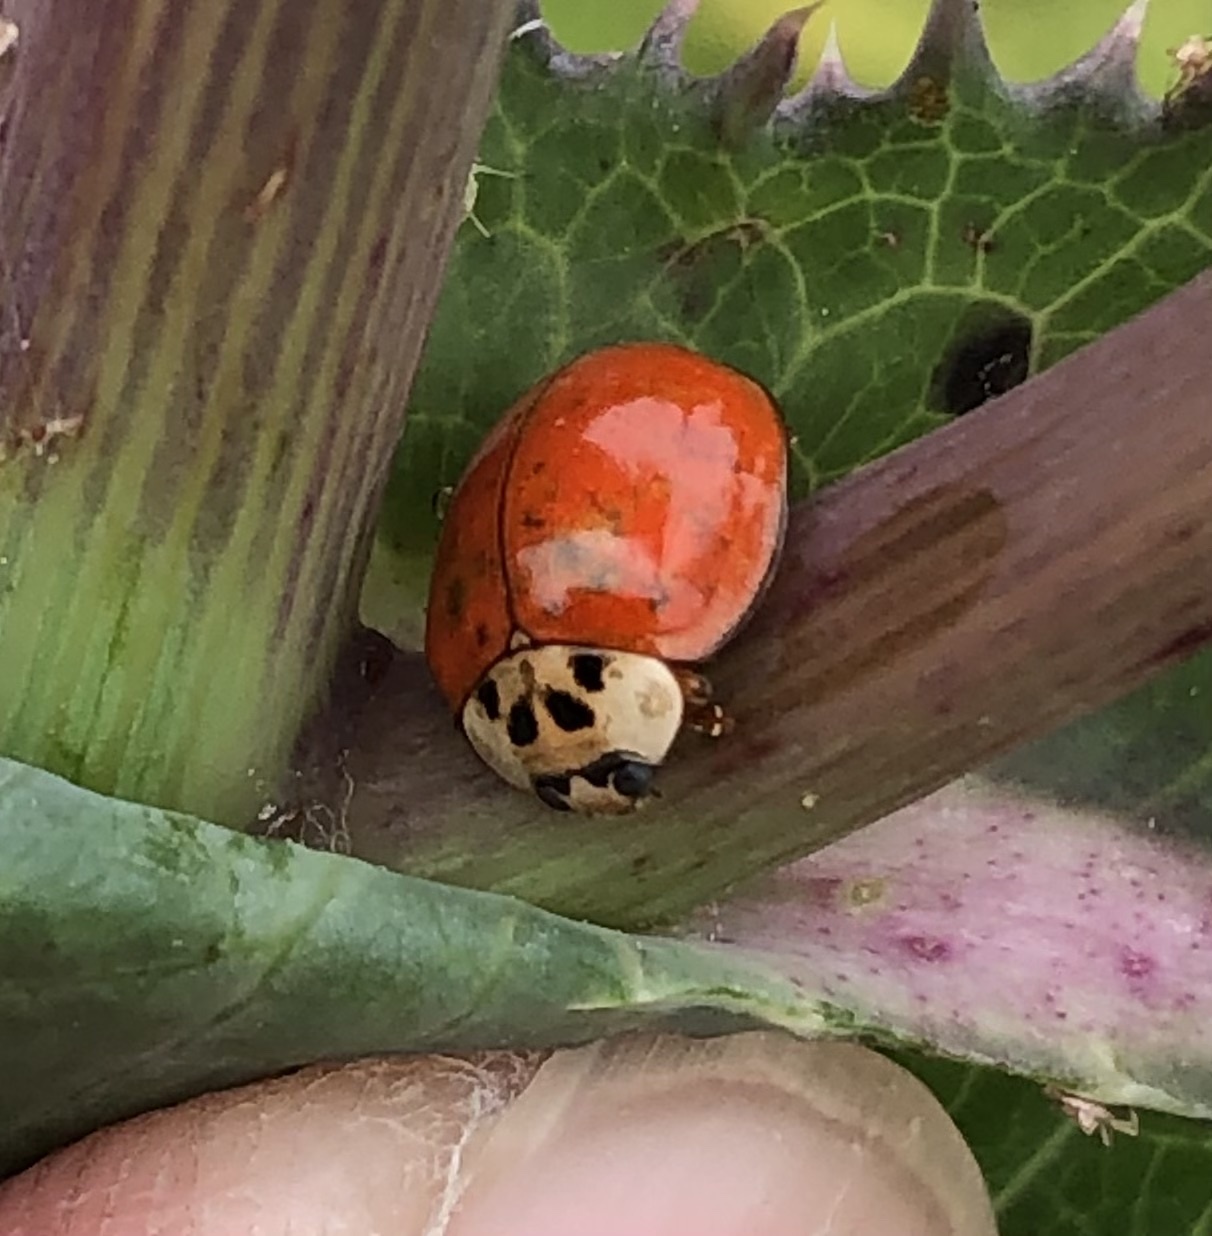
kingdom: Animalia
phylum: Arthropoda
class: Insecta
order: Coleoptera
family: Coccinellidae
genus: Harmonia
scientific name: Harmonia axyridis
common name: Harlequin ladybird
